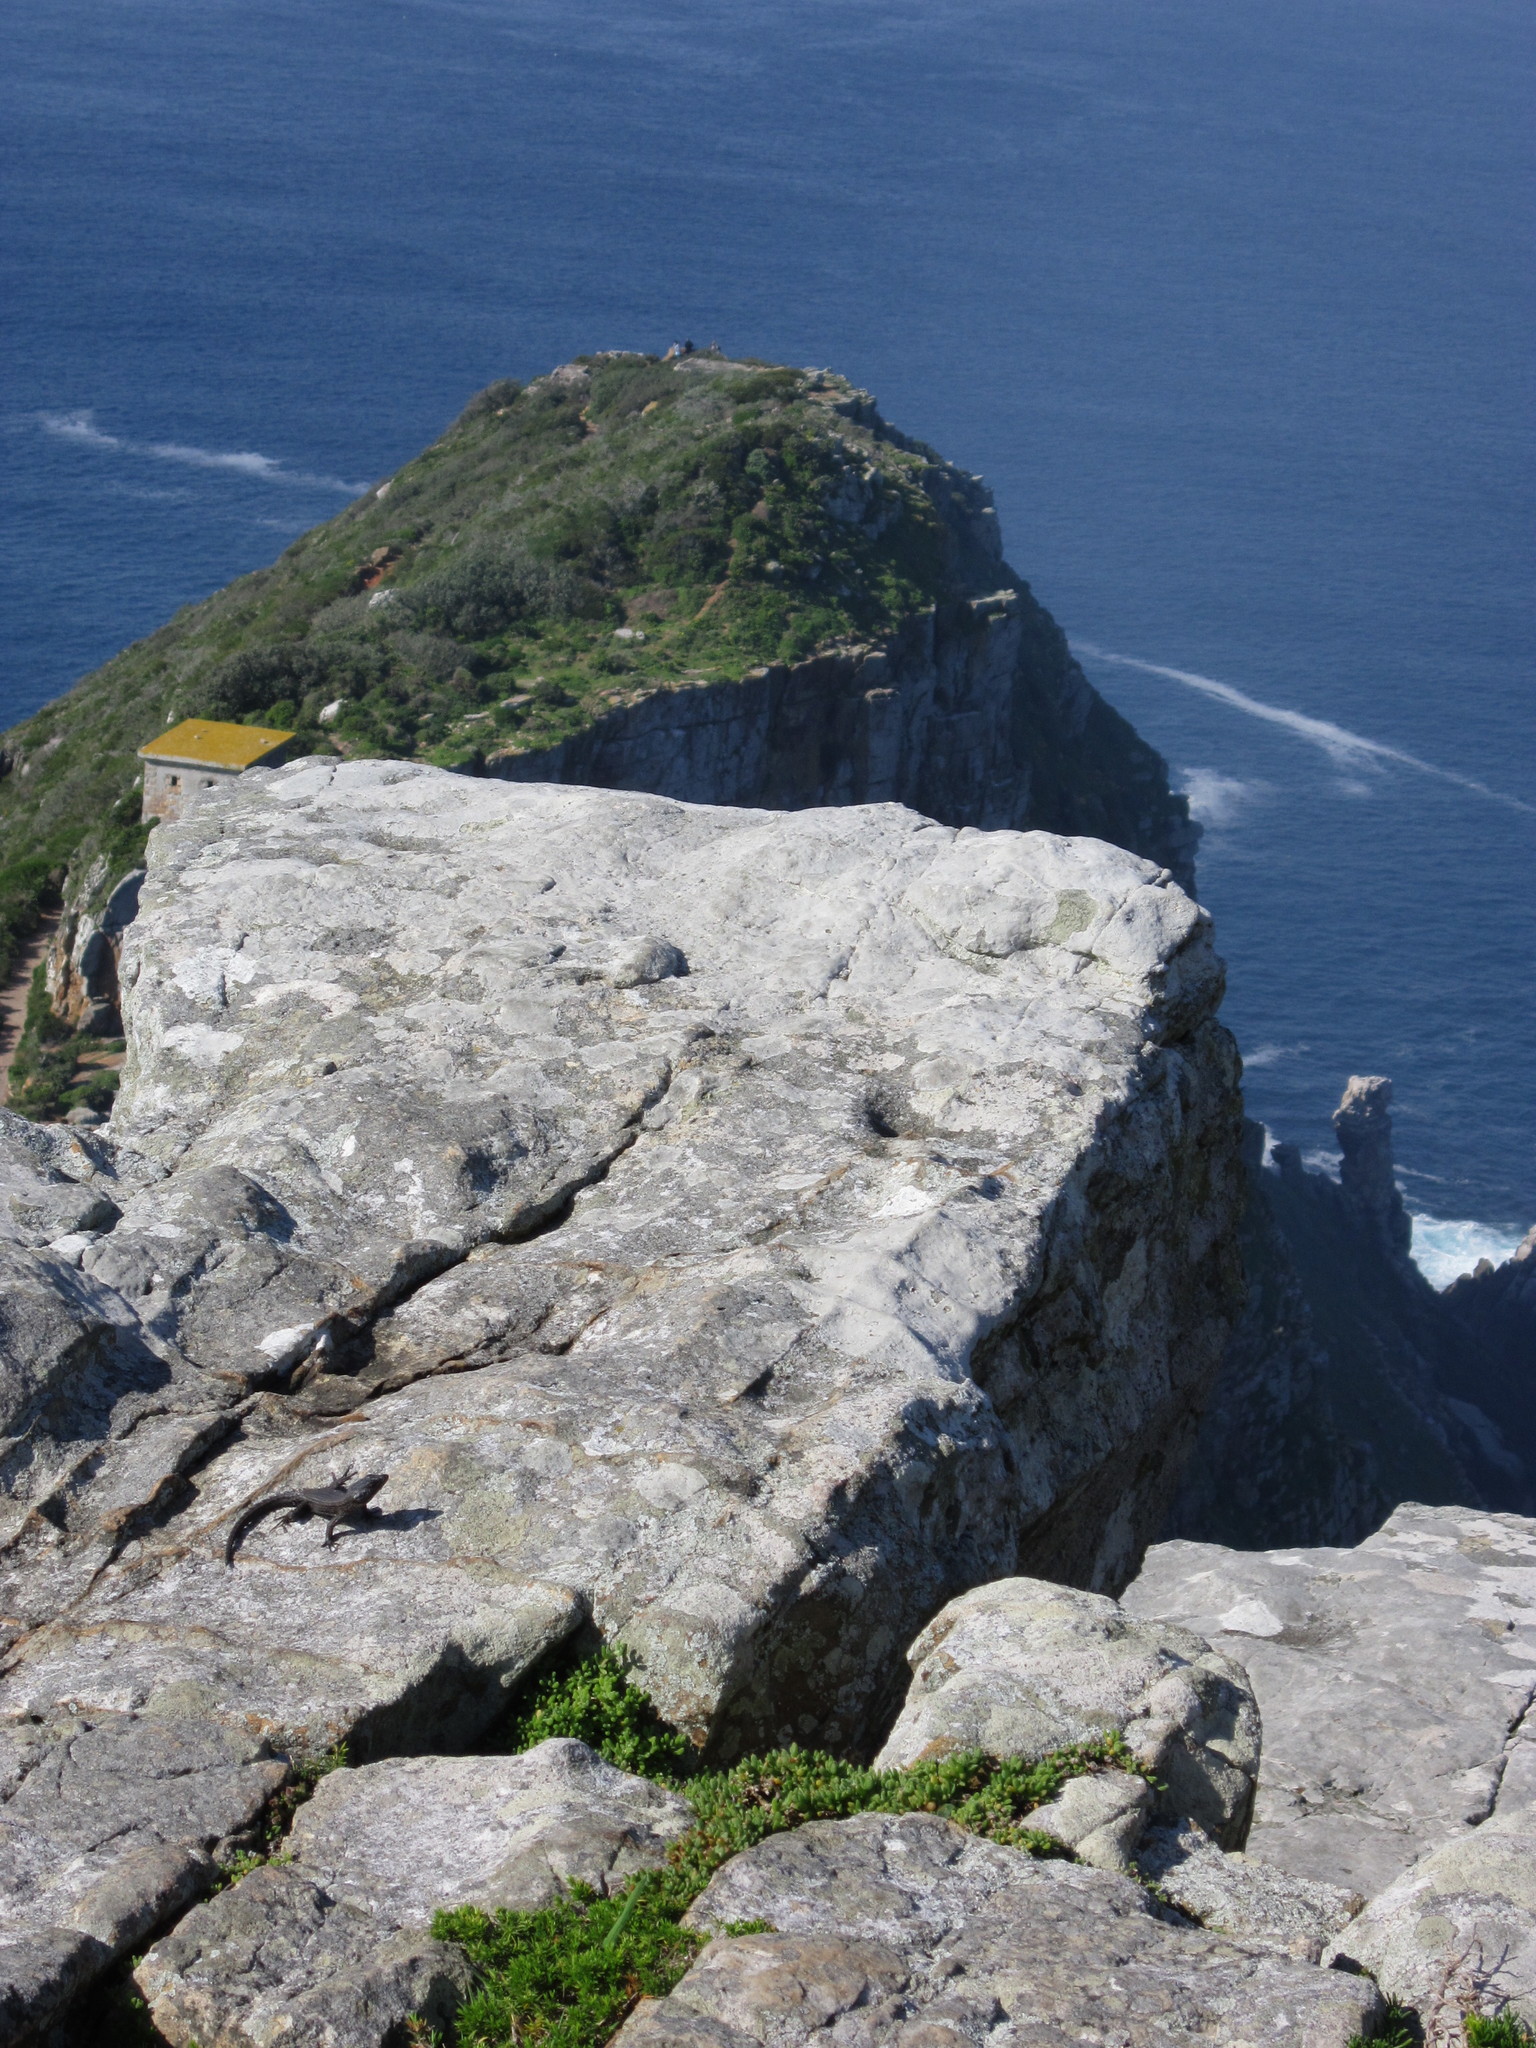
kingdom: Animalia
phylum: Chordata
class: Squamata
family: Cordylidae
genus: Cordylus
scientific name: Cordylus niger
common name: Black girdled lizard
